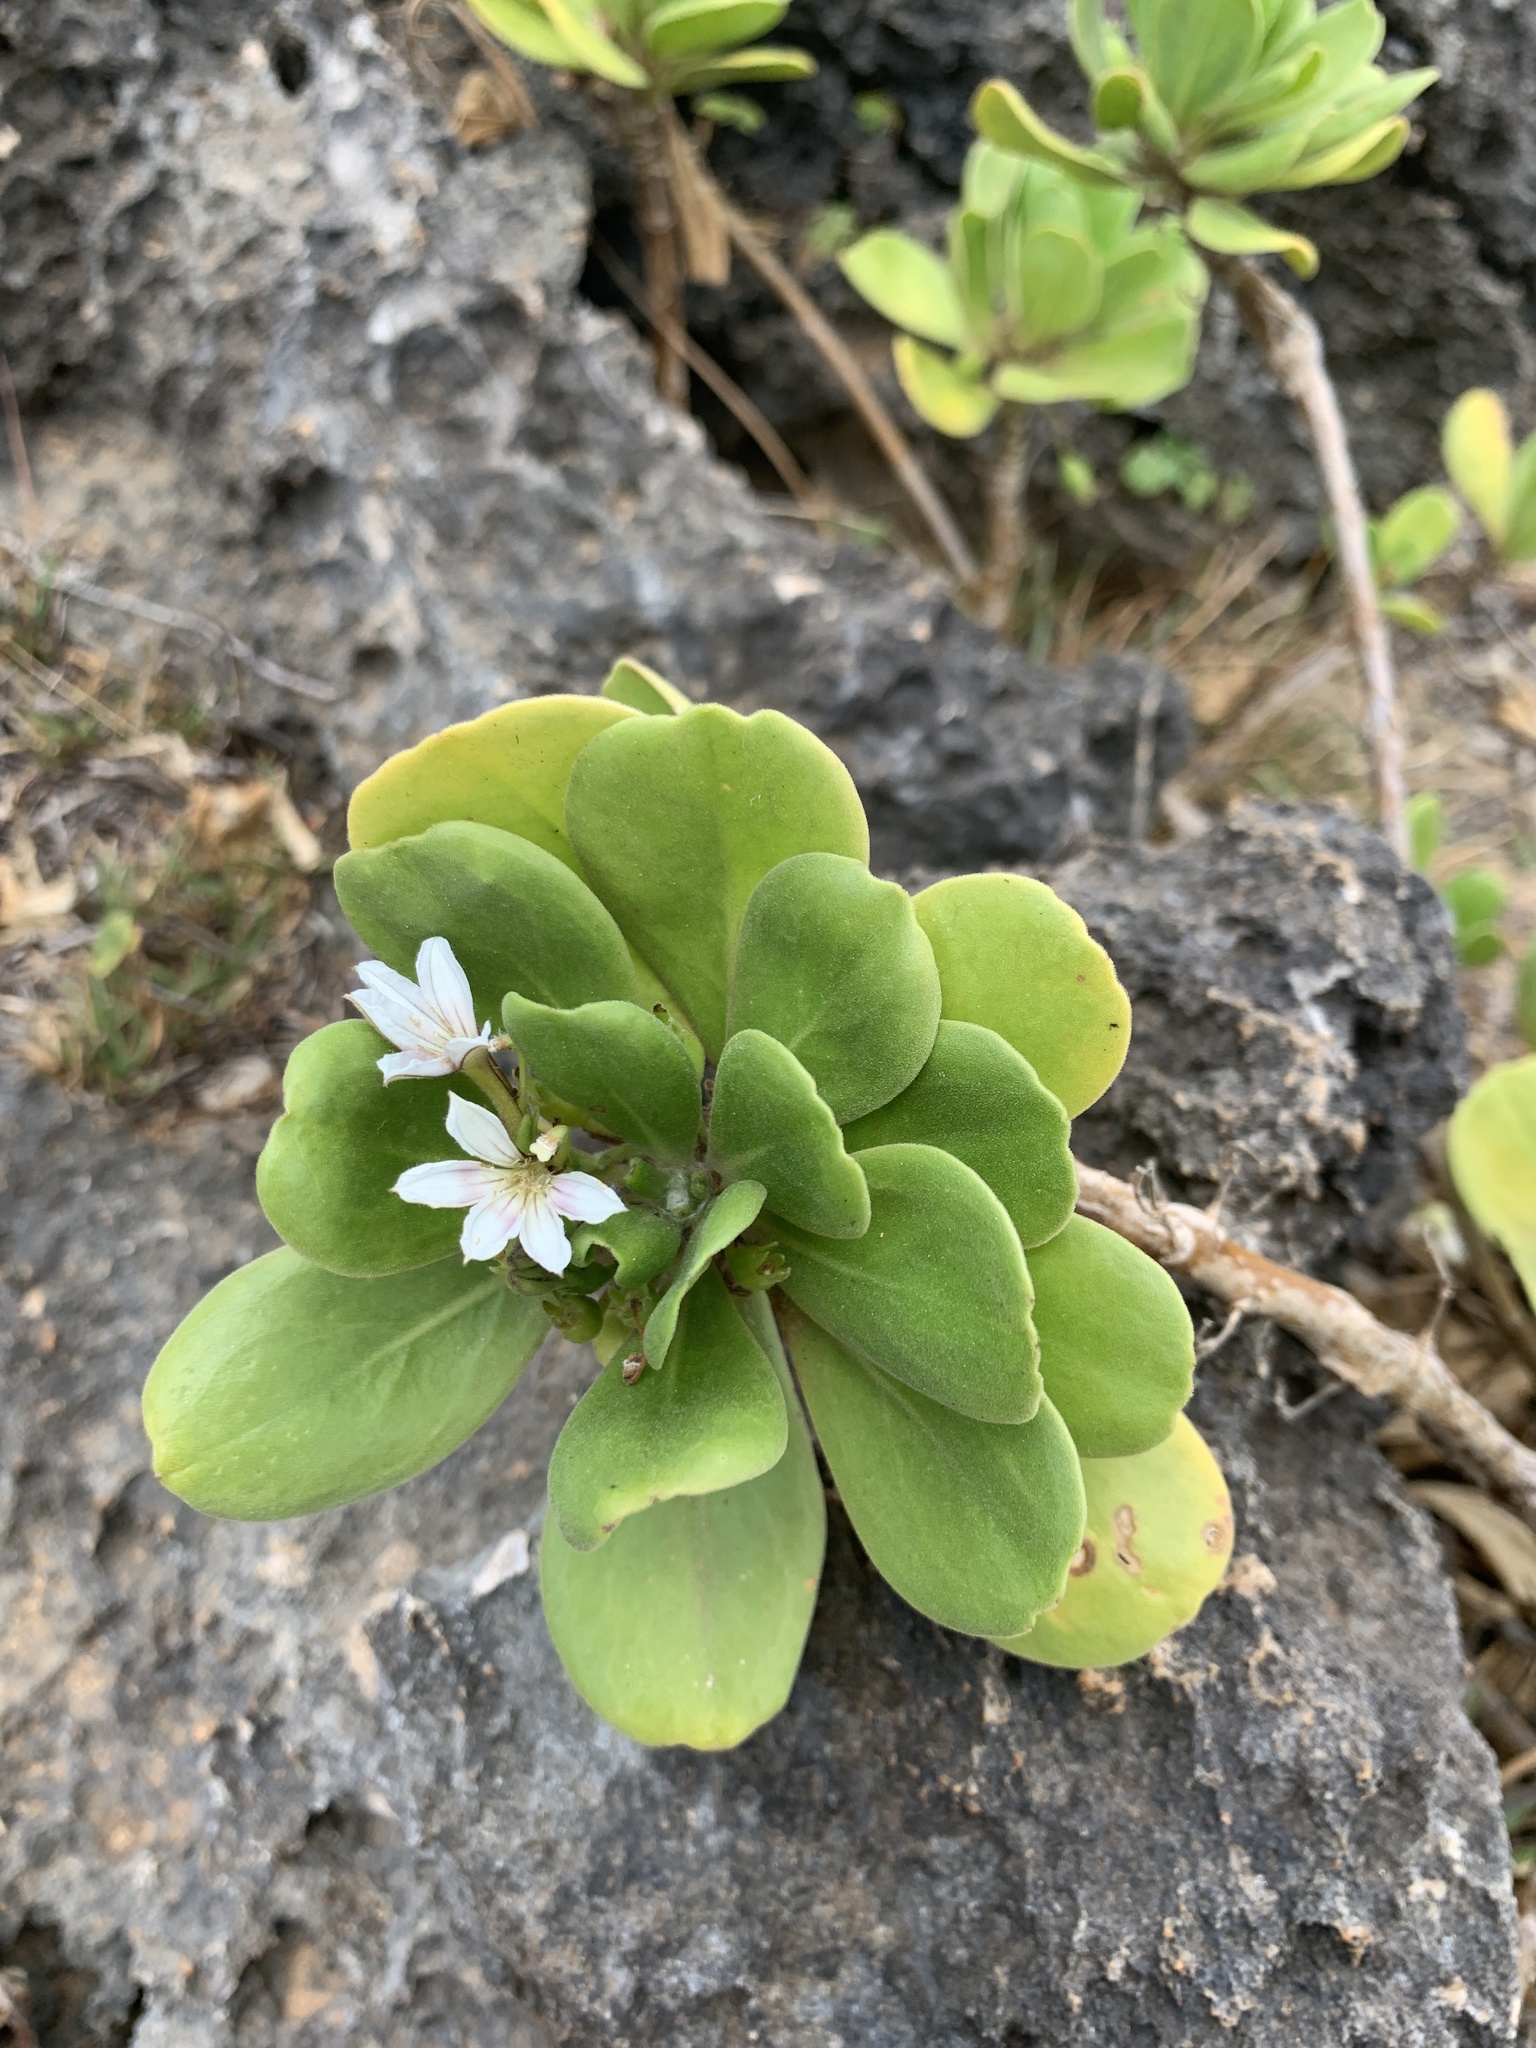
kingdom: Plantae
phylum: Tracheophyta
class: Magnoliopsida
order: Asterales
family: Goodeniaceae
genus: Scaevola
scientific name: Scaevola taccada
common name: Sea lettucetree
